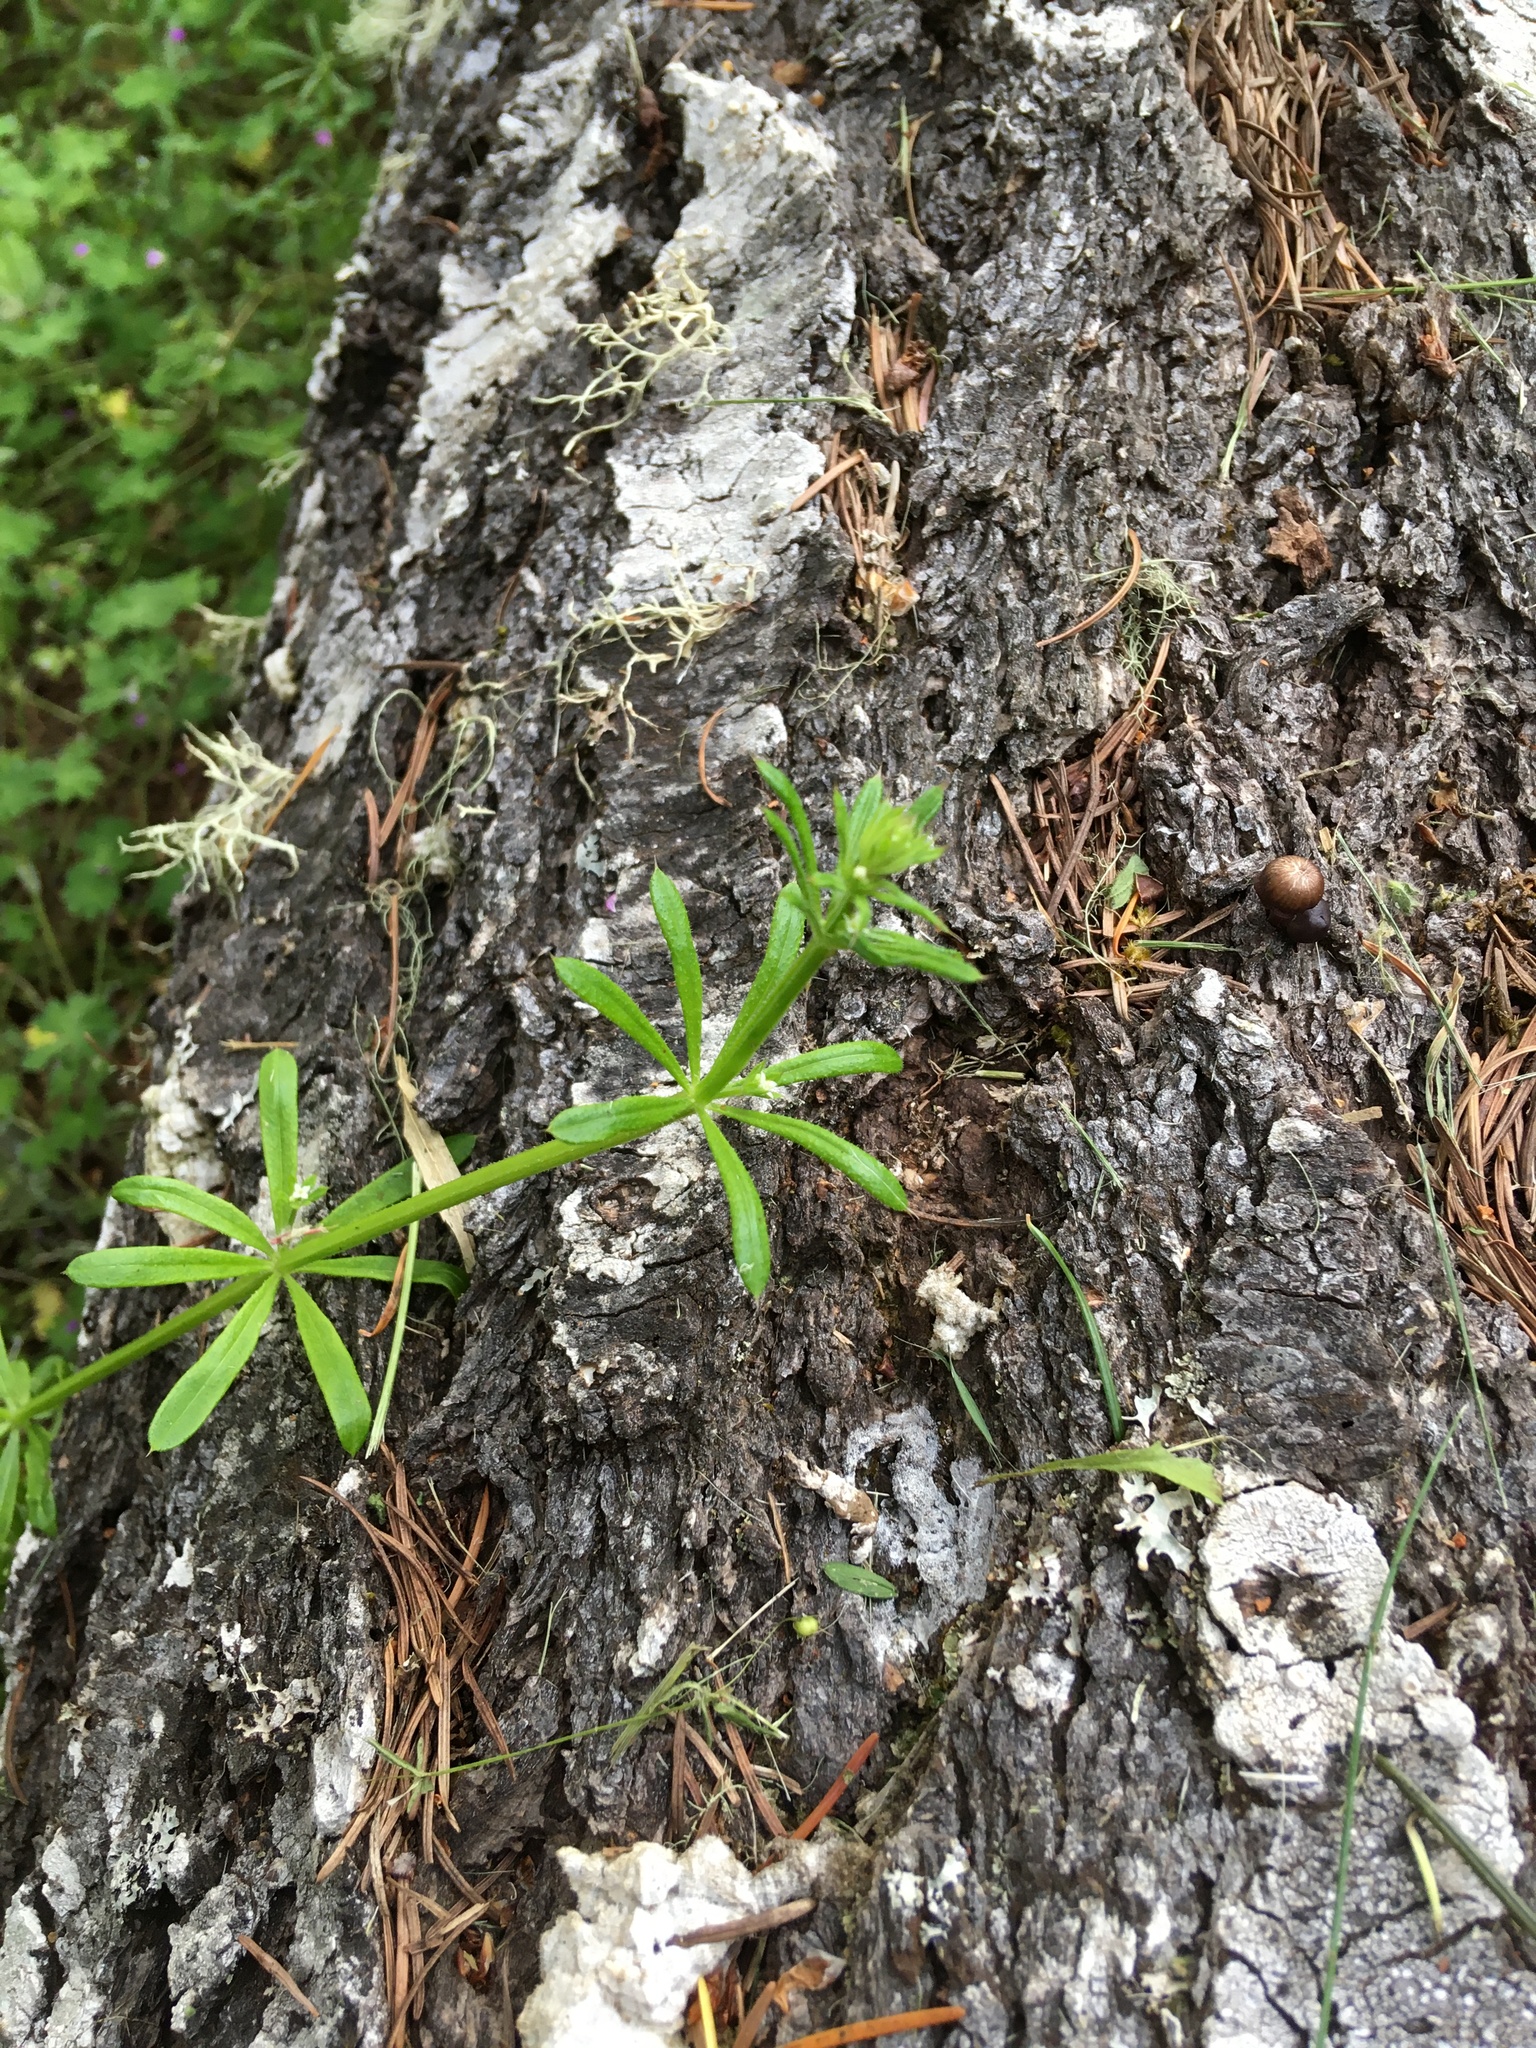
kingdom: Plantae
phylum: Tracheophyta
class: Magnoliopsida
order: Gentianales
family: Rubiaceae
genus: Galium
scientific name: Galium aparine
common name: Cleavers
